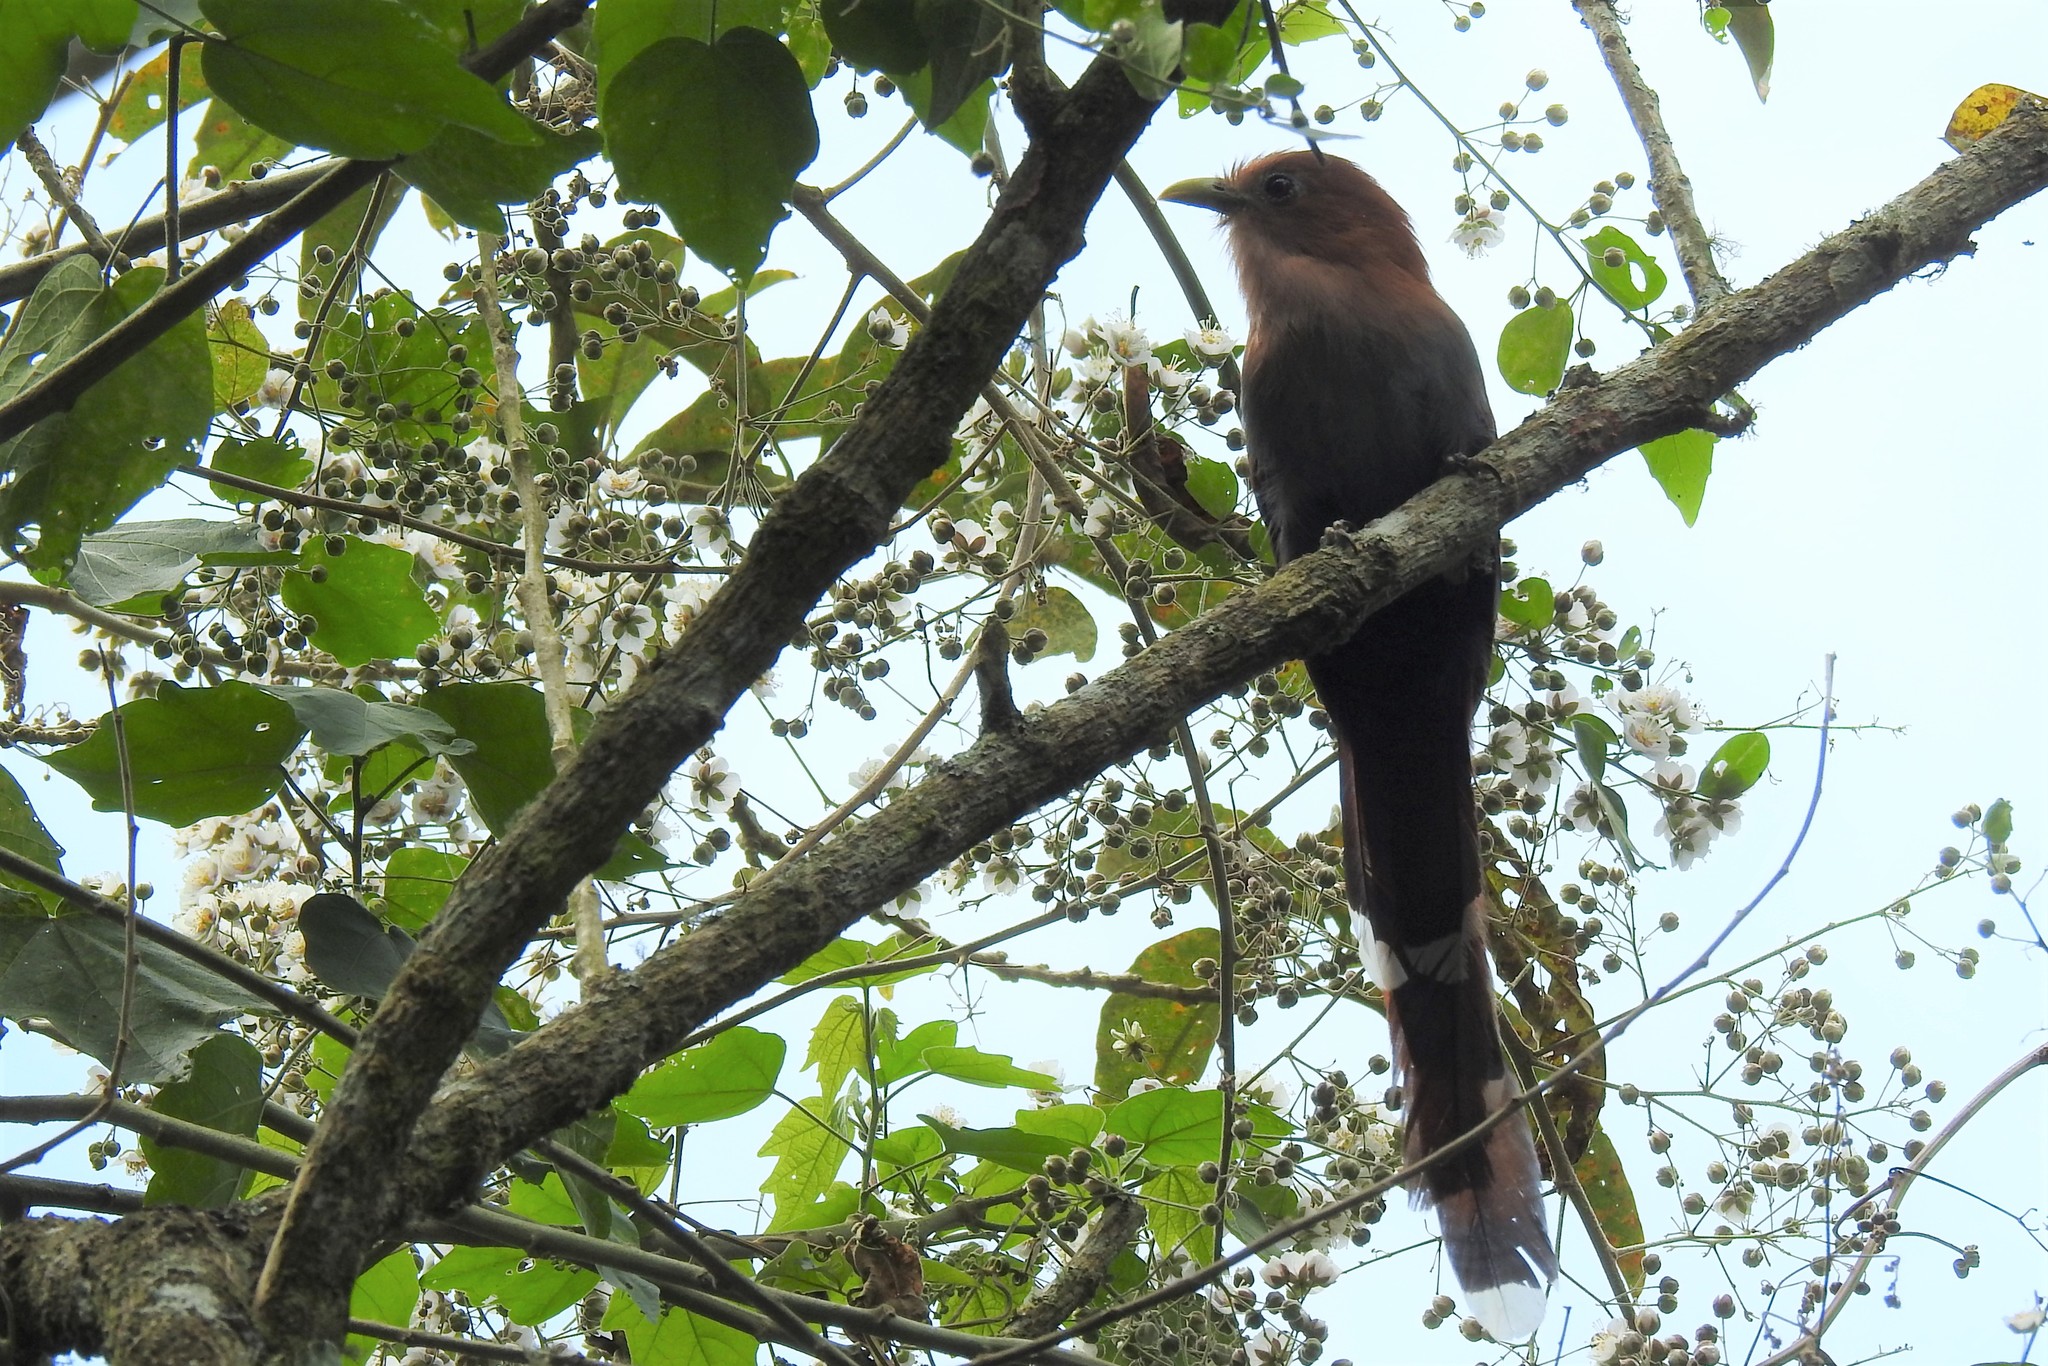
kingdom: Animalia
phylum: Chordata
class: Aves
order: Cuculiformes
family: Cuculidae
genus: Piaya
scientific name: Piaya cayana
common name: Squirrel cuckoo
